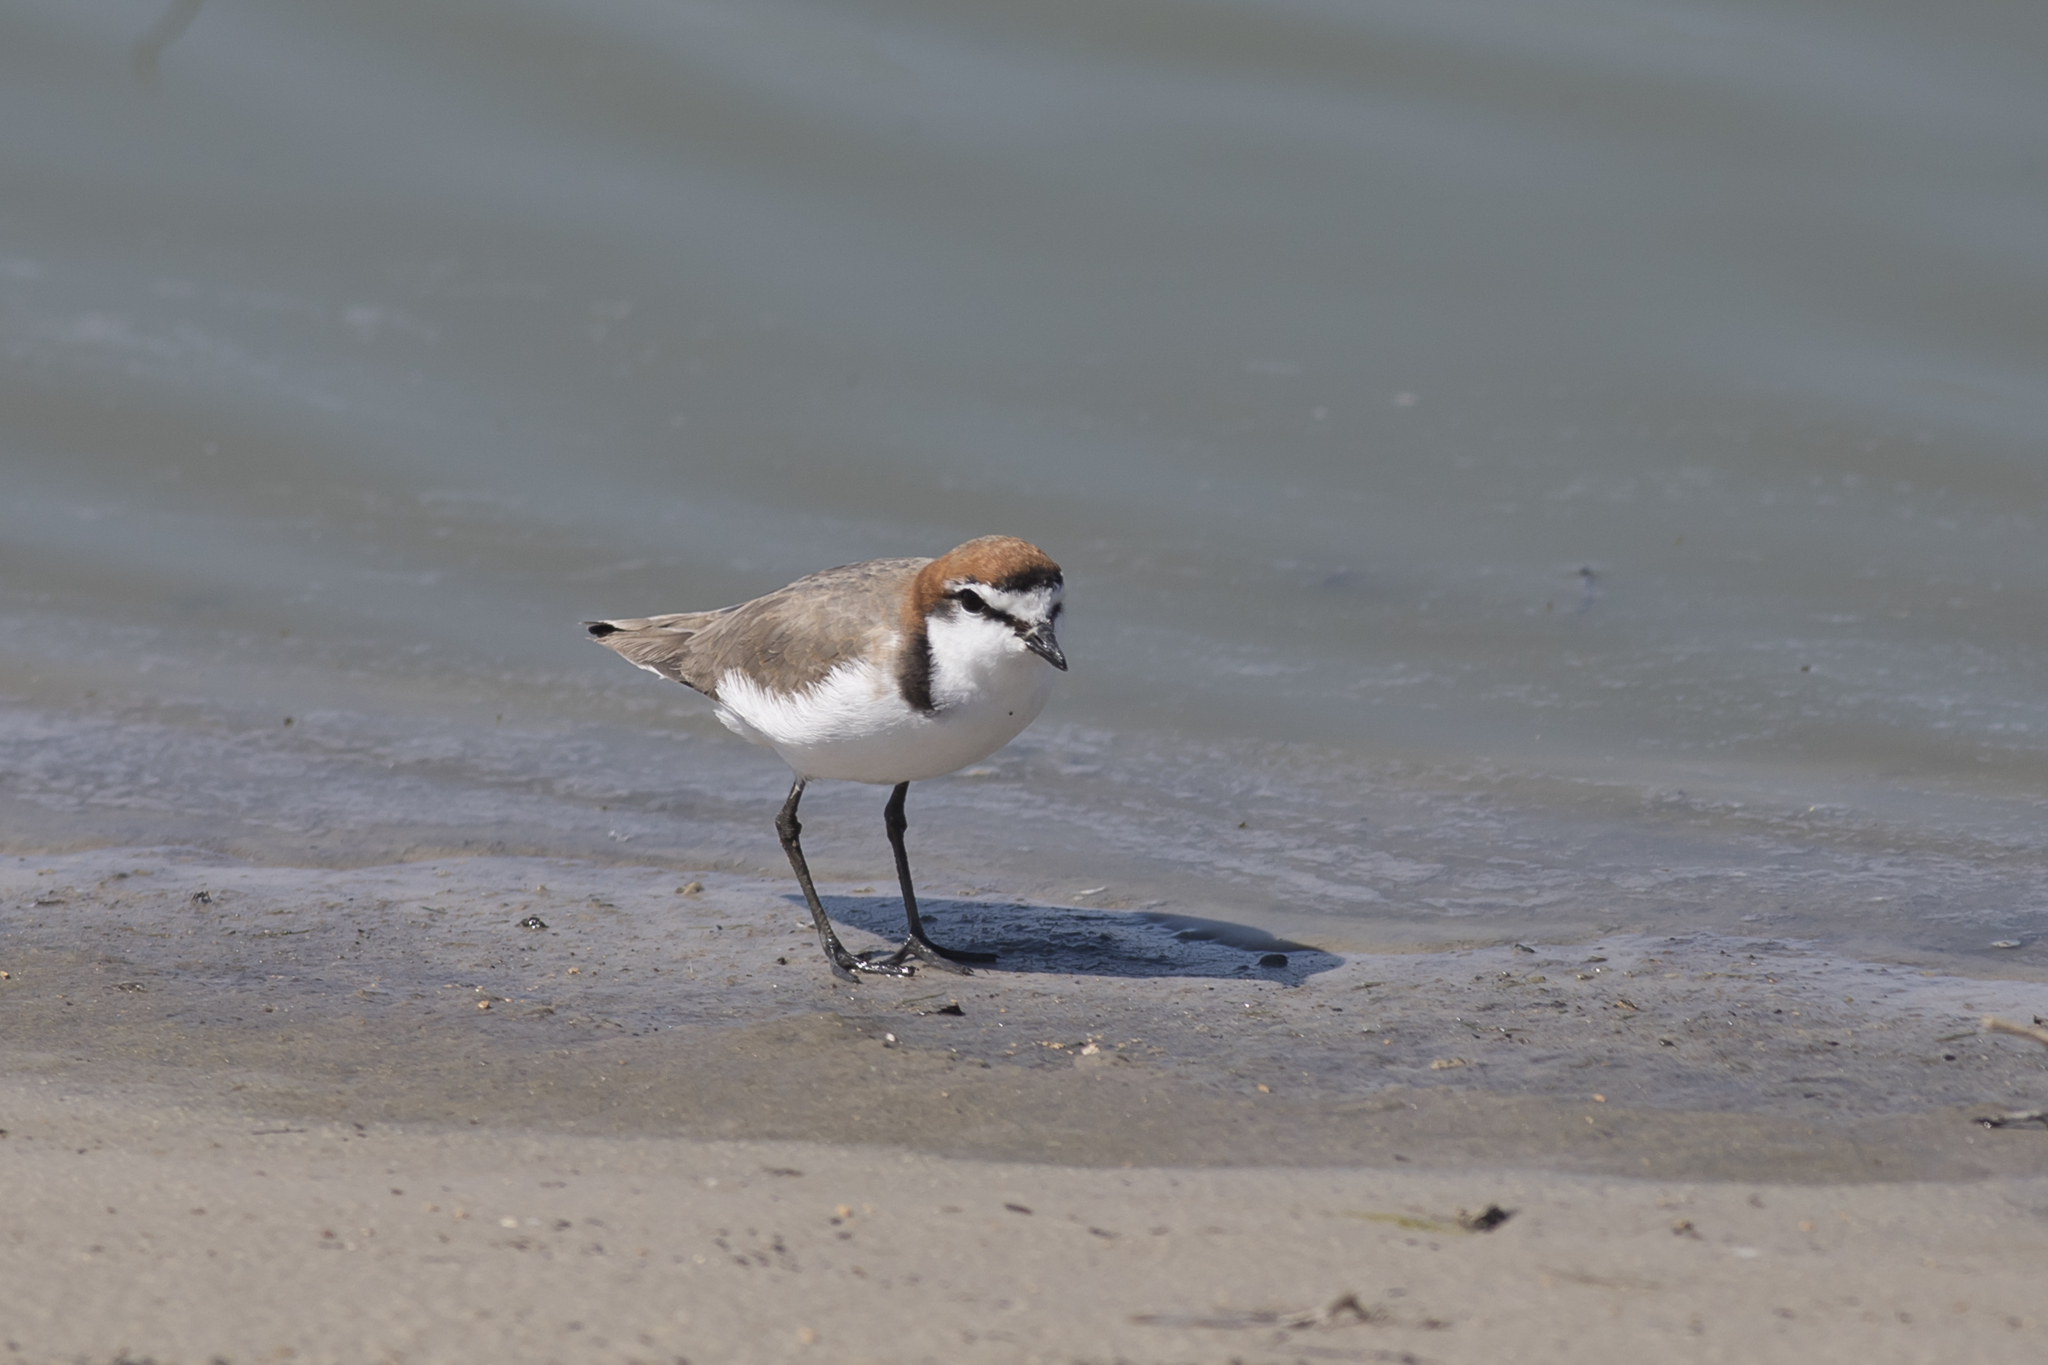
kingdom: Animalia
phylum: Chordata
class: Aves
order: Charadriiformes
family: Charadriidae
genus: Anarhynchus
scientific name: Anarhynchus
